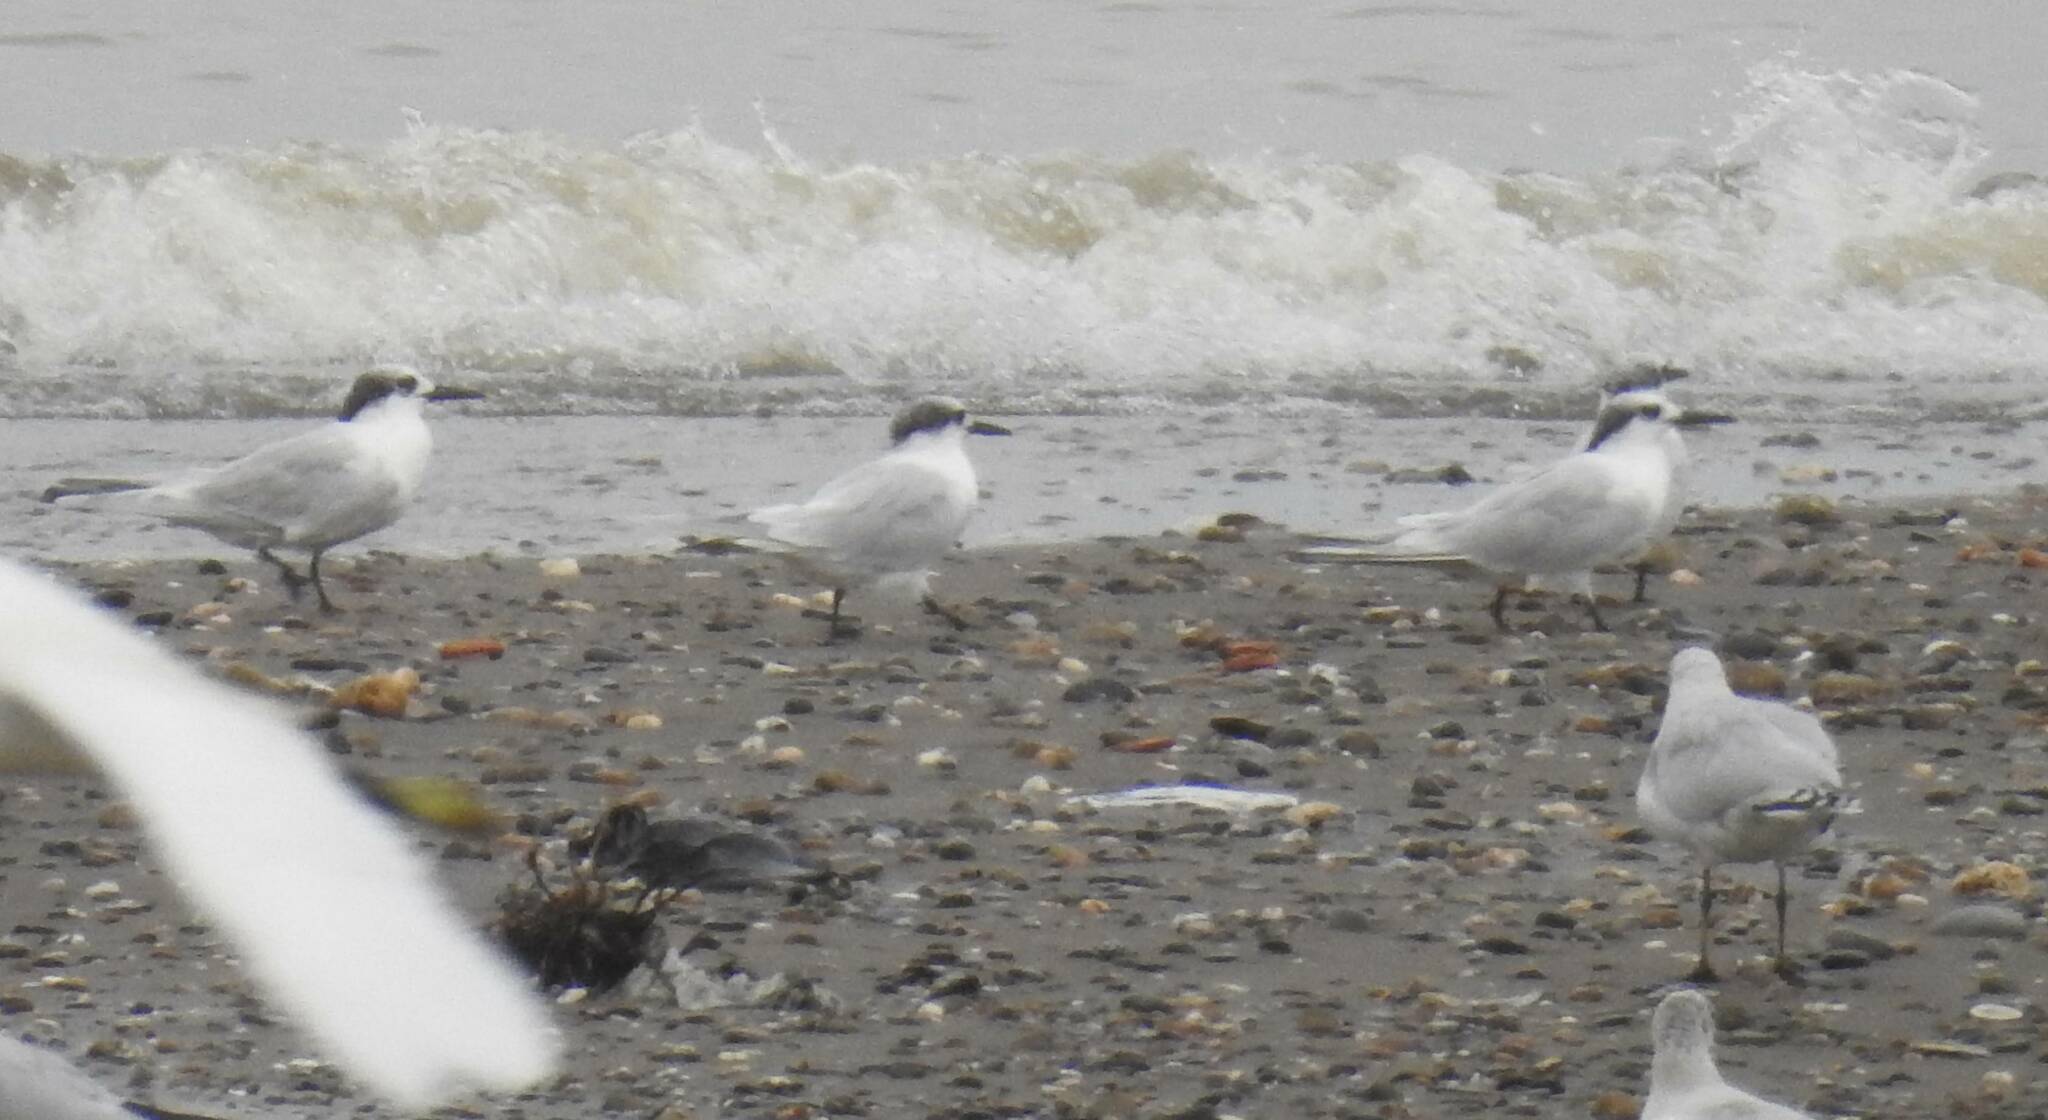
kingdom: Animalia
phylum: Chordata
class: Aves
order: Charadriiformes
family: Laridae
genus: Thalasseus
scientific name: Thalasseus sandvicensis
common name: Sandwich tern
